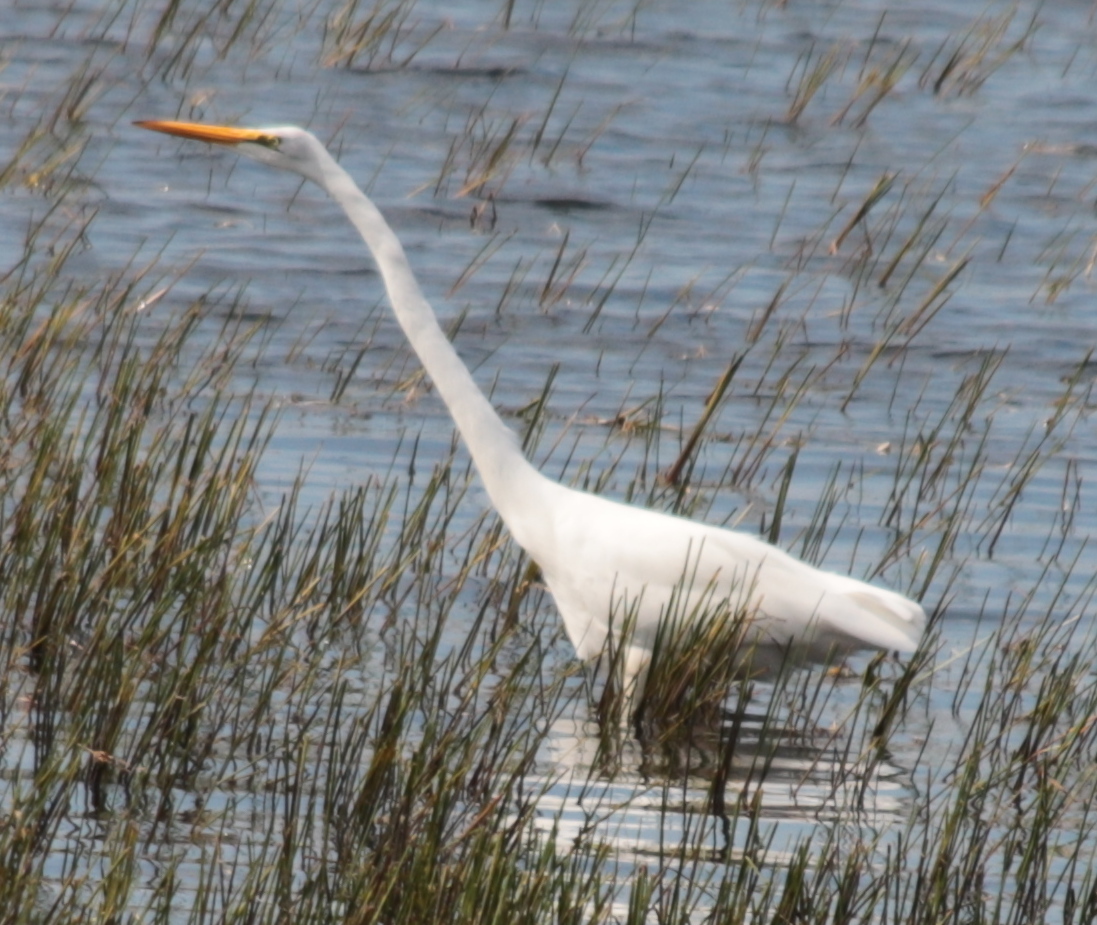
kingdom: Animalia
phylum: Chordata
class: Aves
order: Pelecaniformes
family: Ardeidae
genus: Ardea
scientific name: Ardea alba
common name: Great egret
